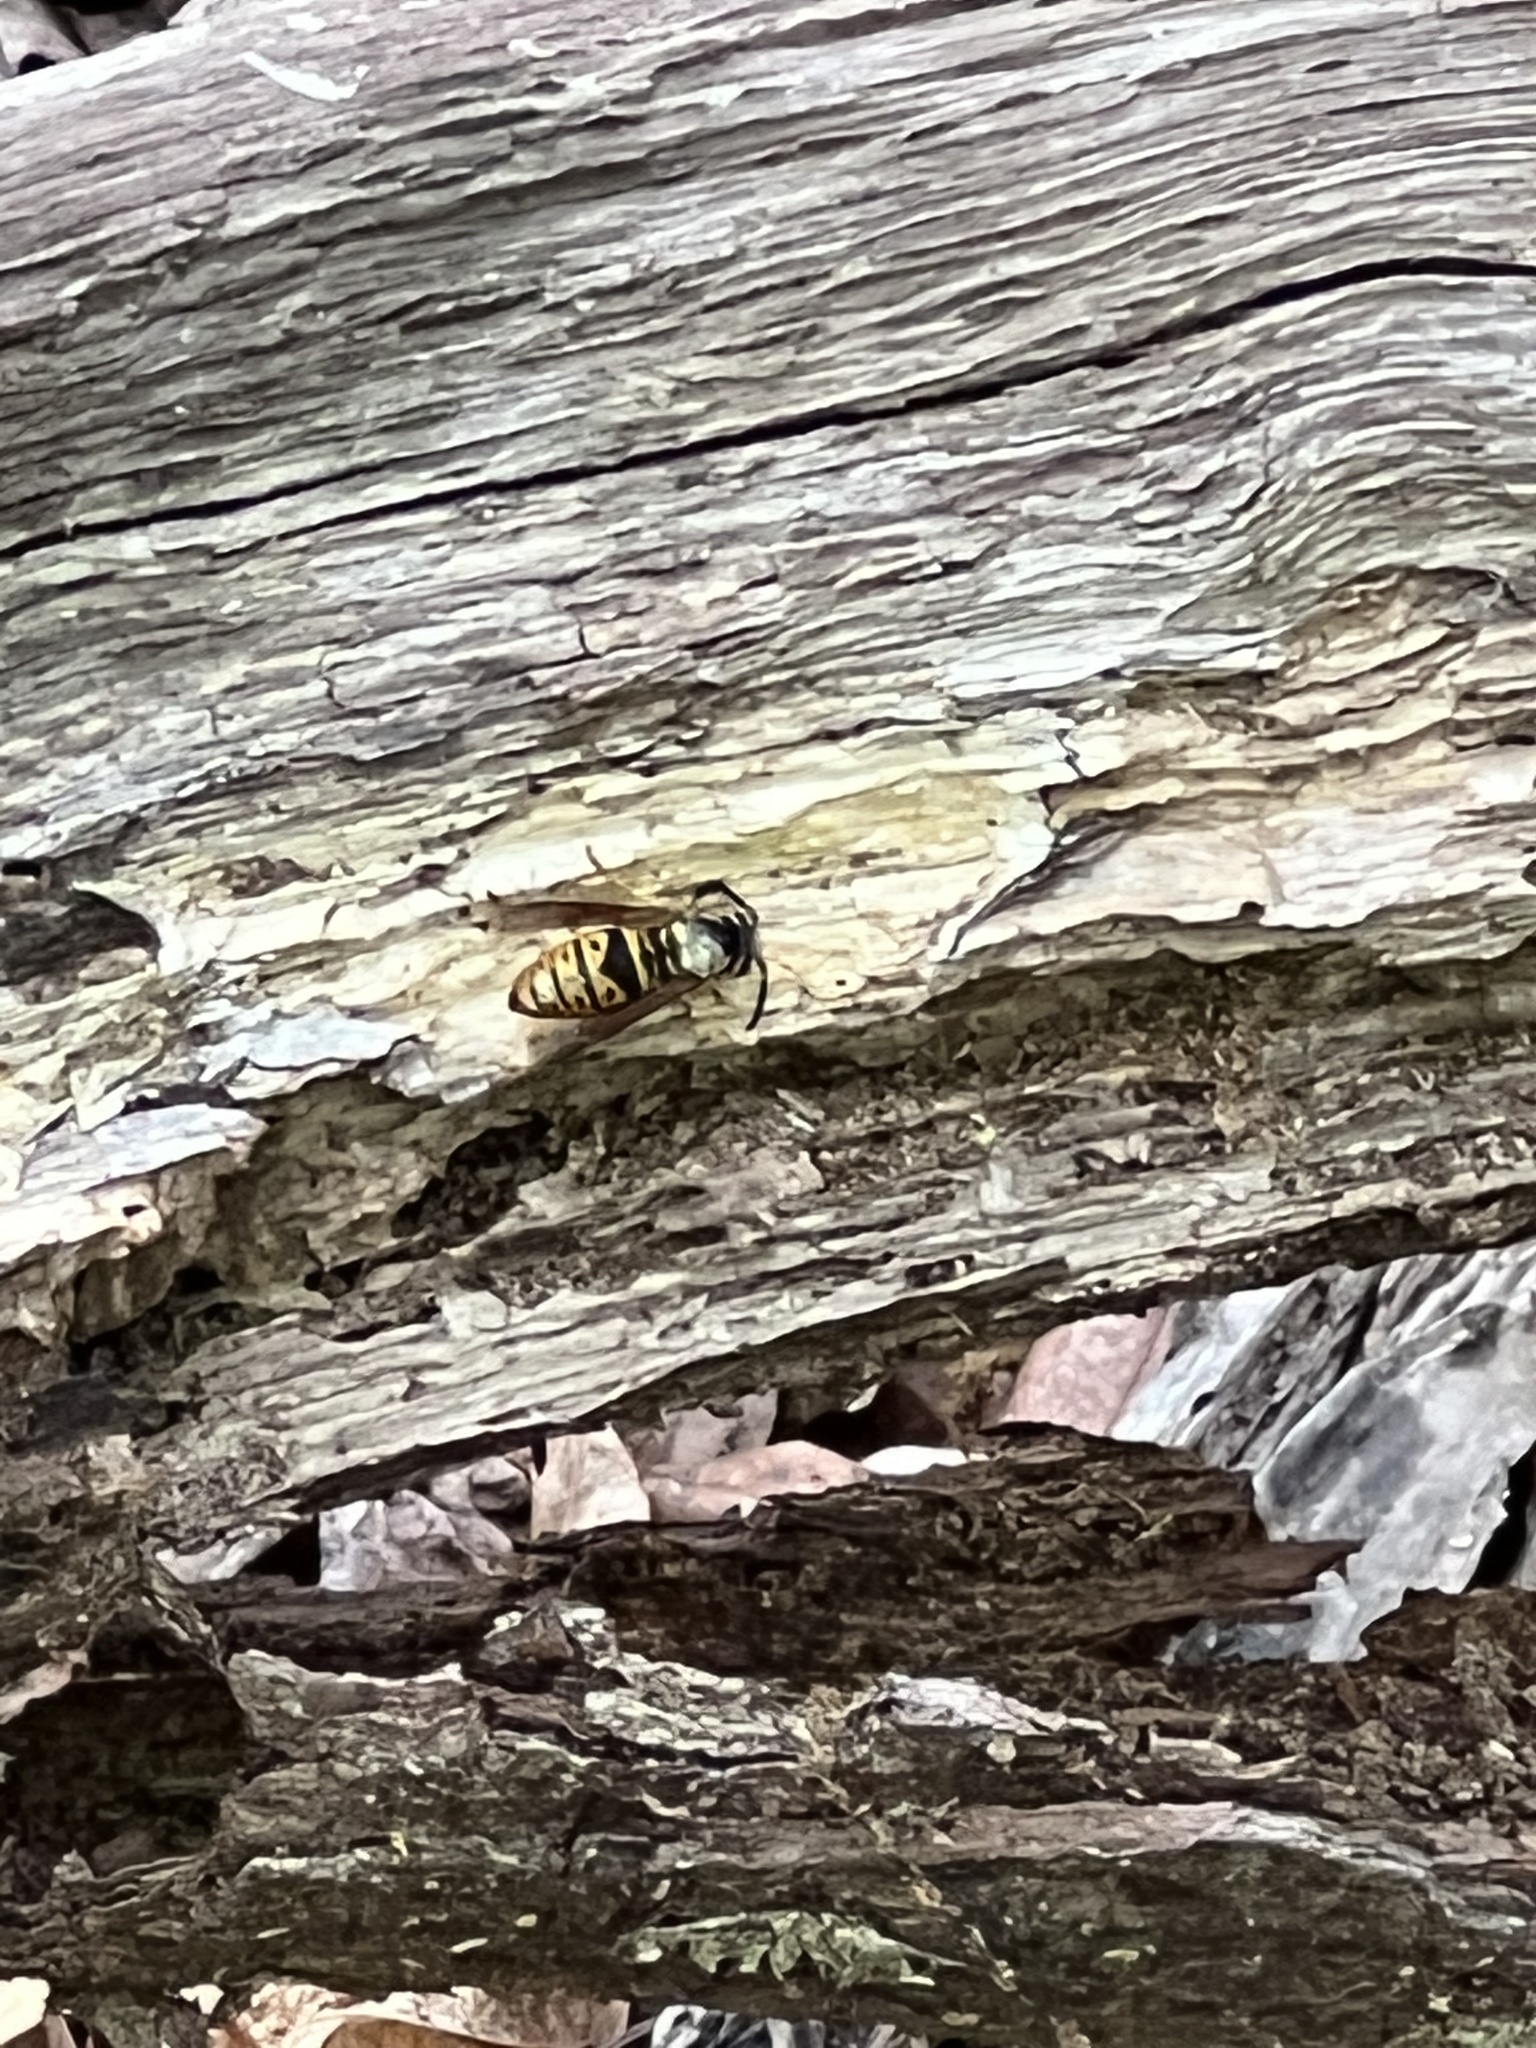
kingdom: Animalia
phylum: Arthropoda
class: Insecta
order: Hymenoptera
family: Vespidae
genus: Vespula
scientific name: Vespula maculifrons
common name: Eastern yellowjacket
